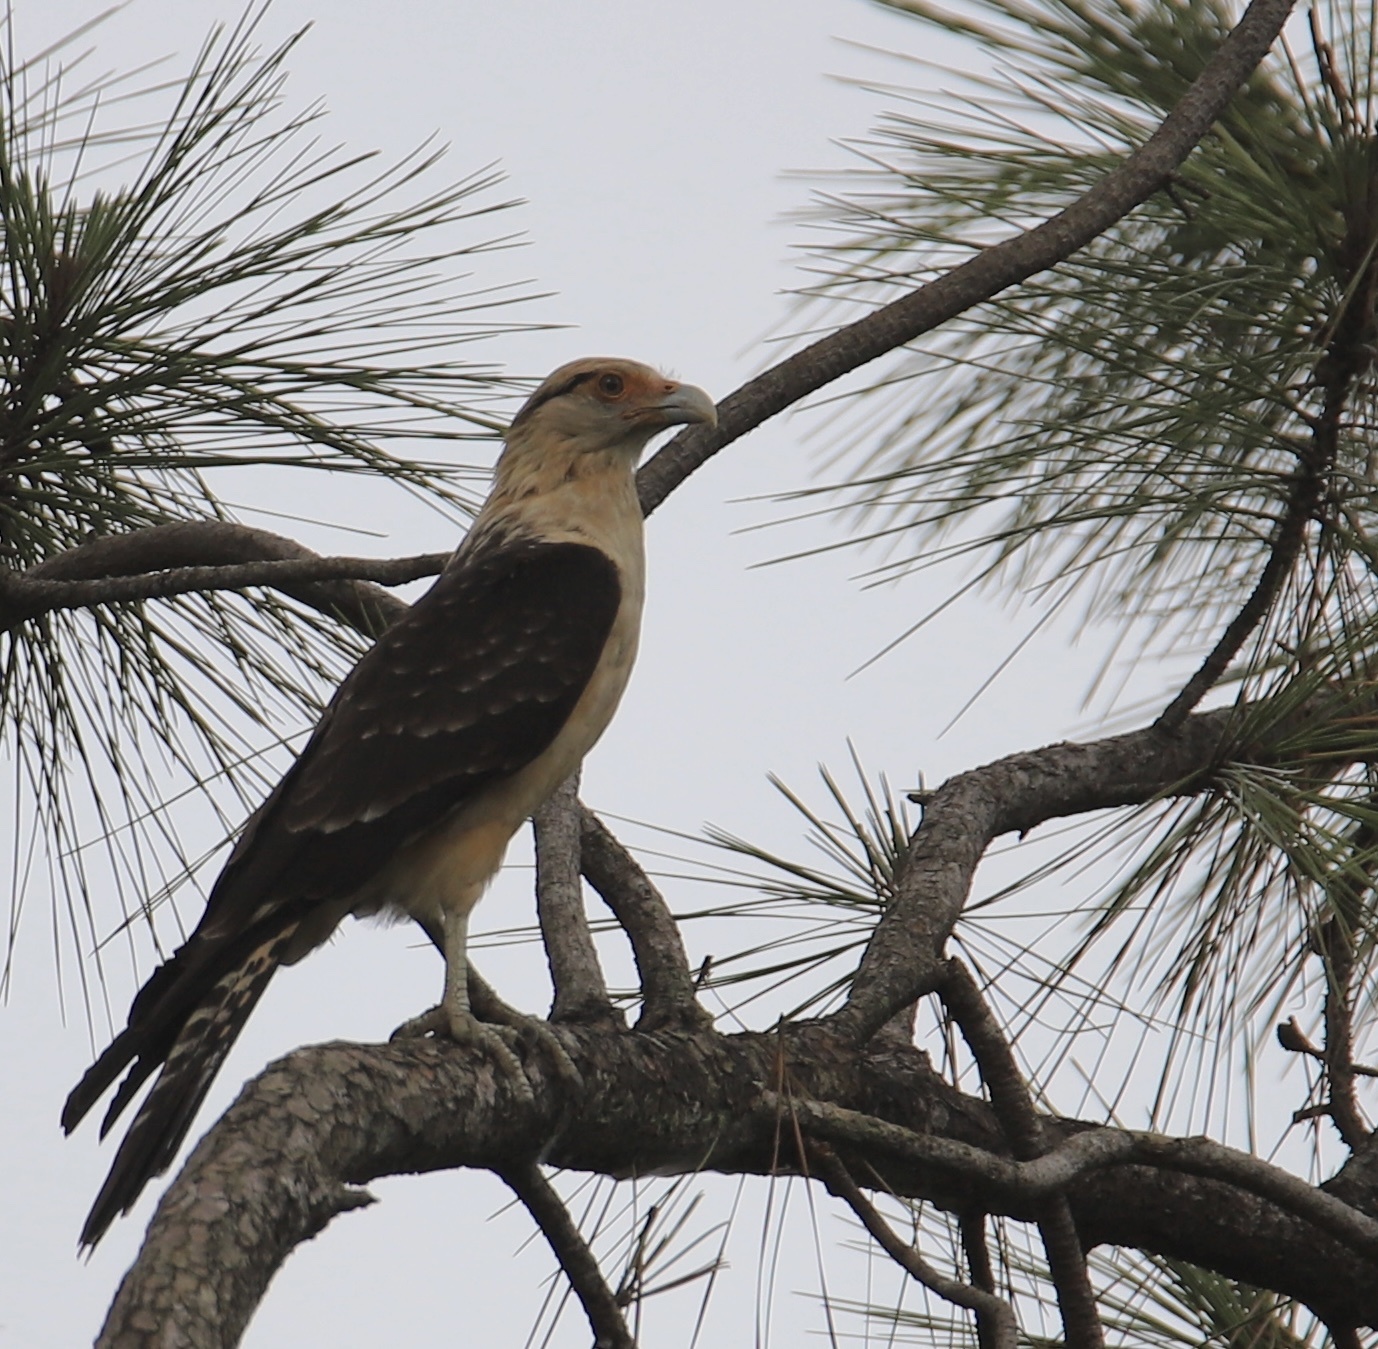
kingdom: Animalia
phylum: Chordata
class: Aves
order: Falconiformes
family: Falconidae
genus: Daptrius
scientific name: Daptrius
